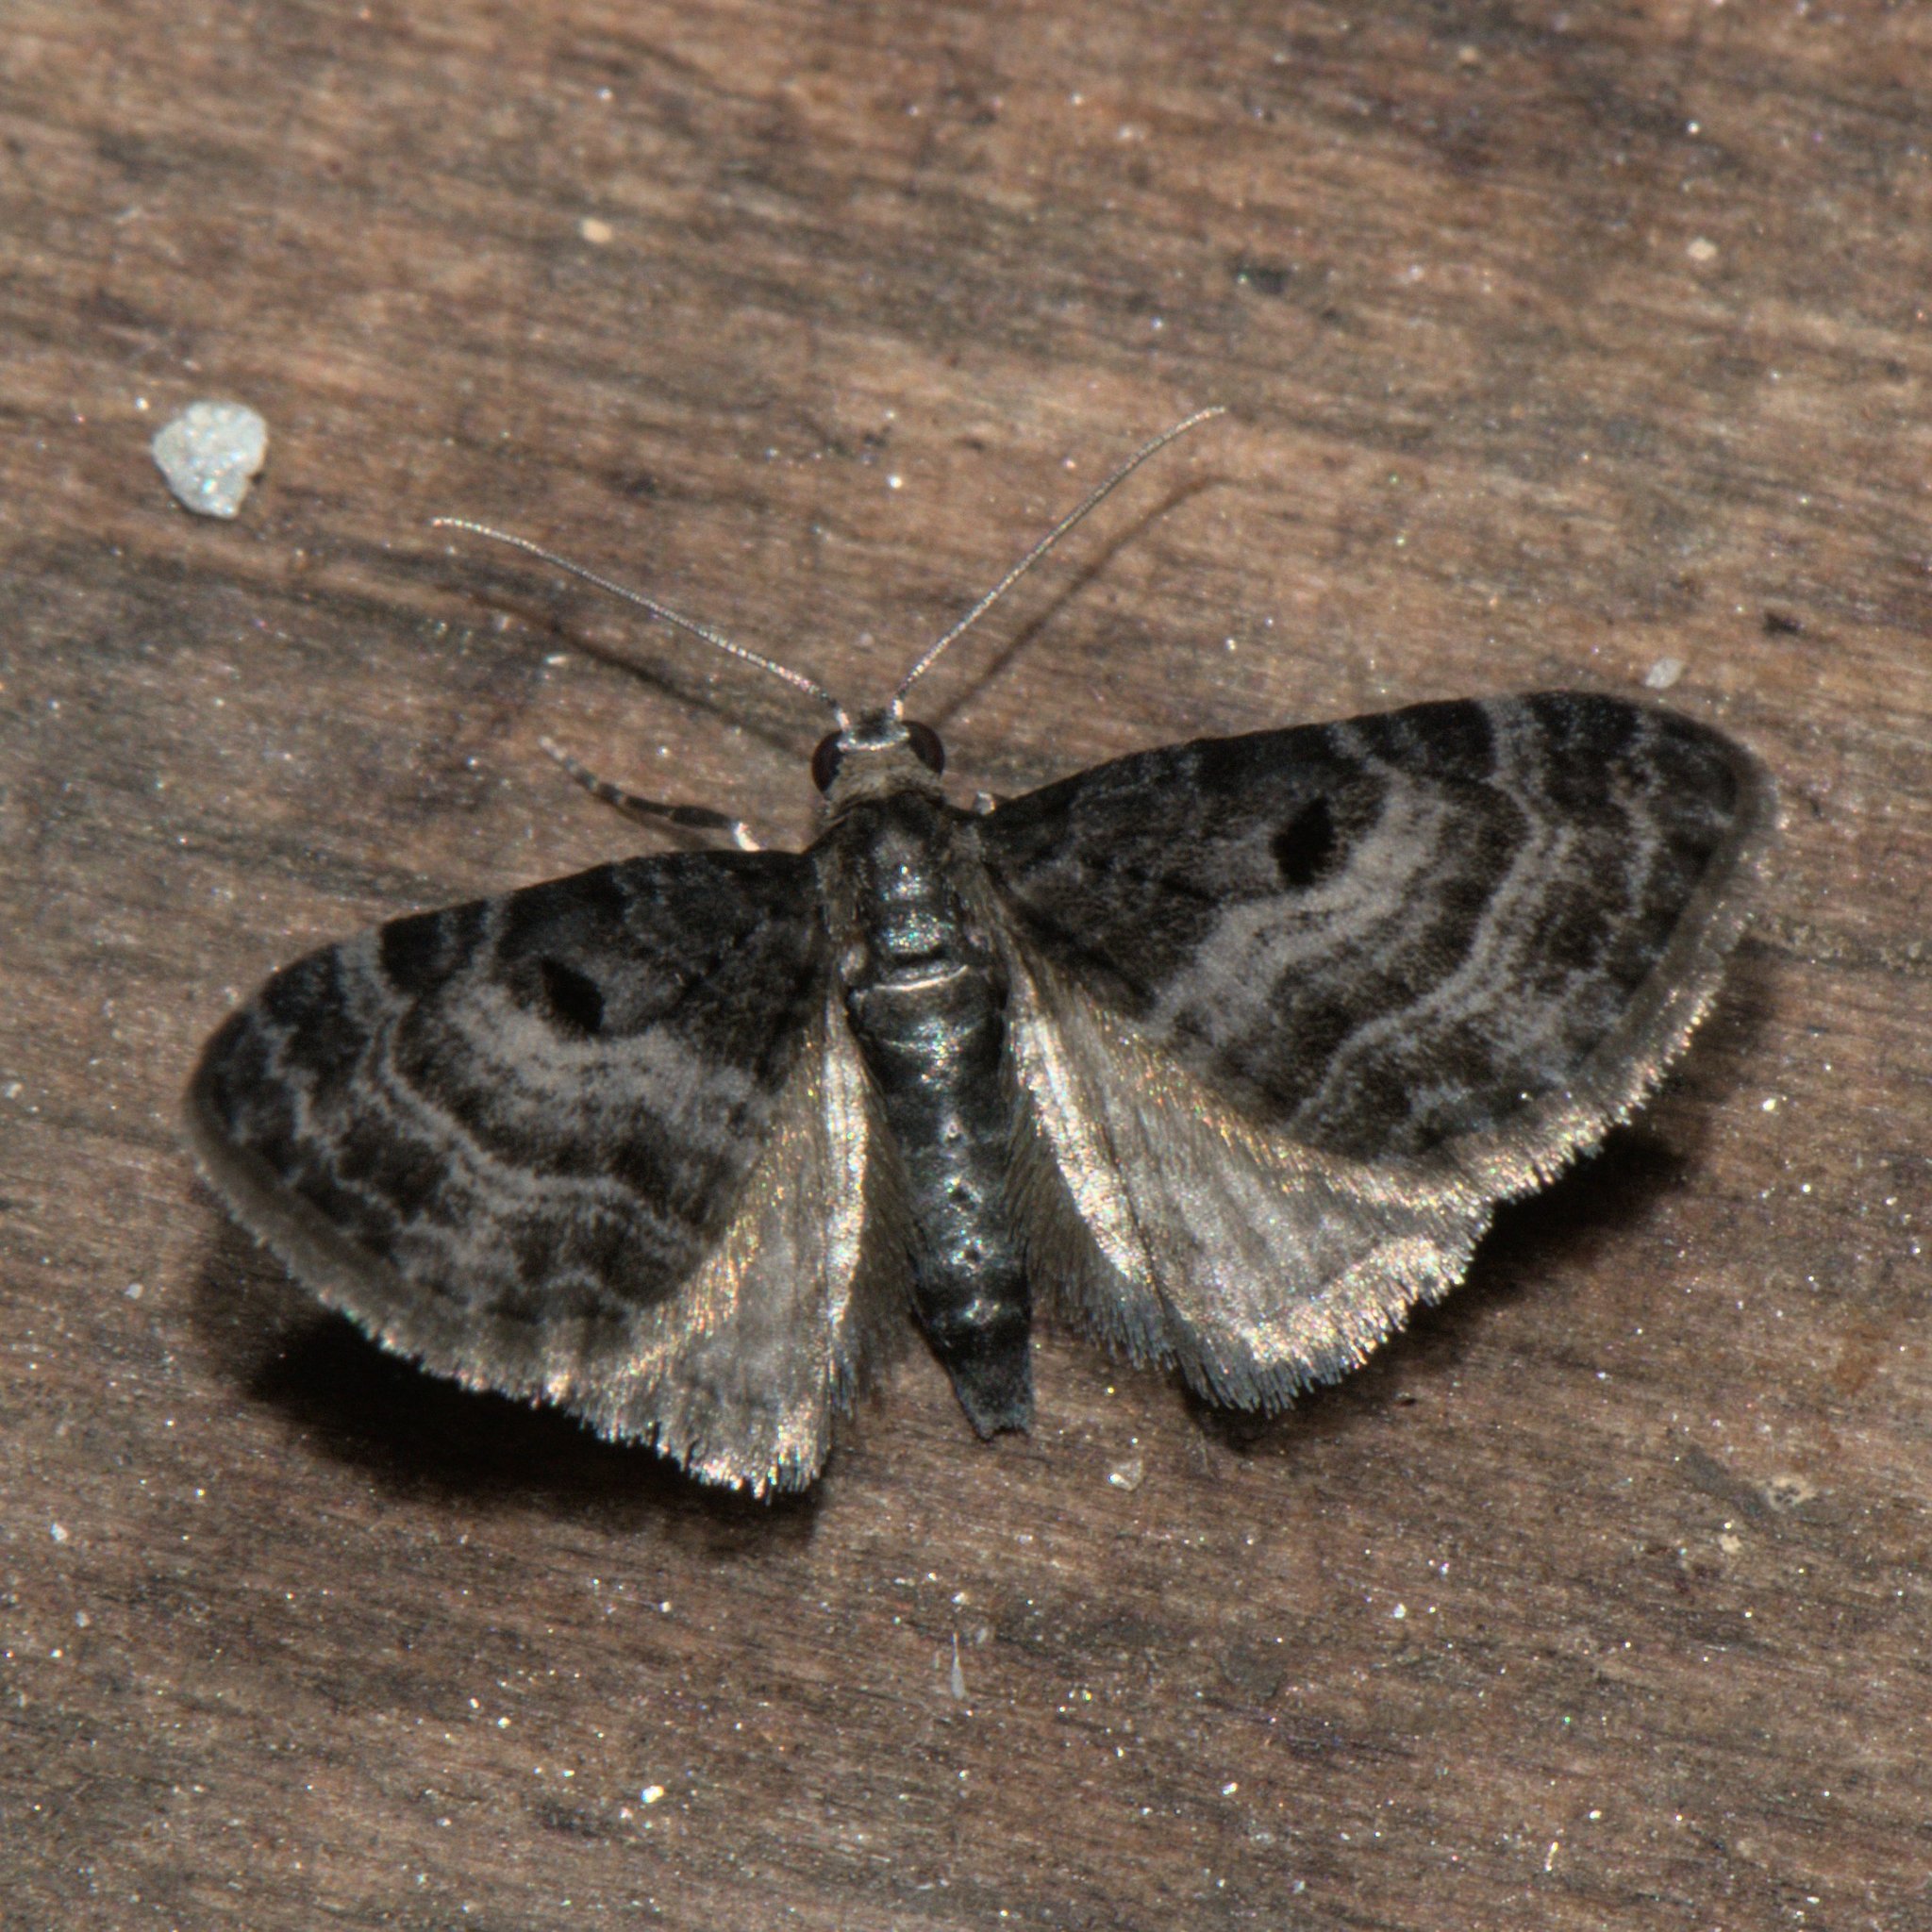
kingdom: Animalia
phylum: Arthropoda
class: Insecta
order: Lepidoptera
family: Geometridae
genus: Eupithecia
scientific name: Eupithecia atrisignis
